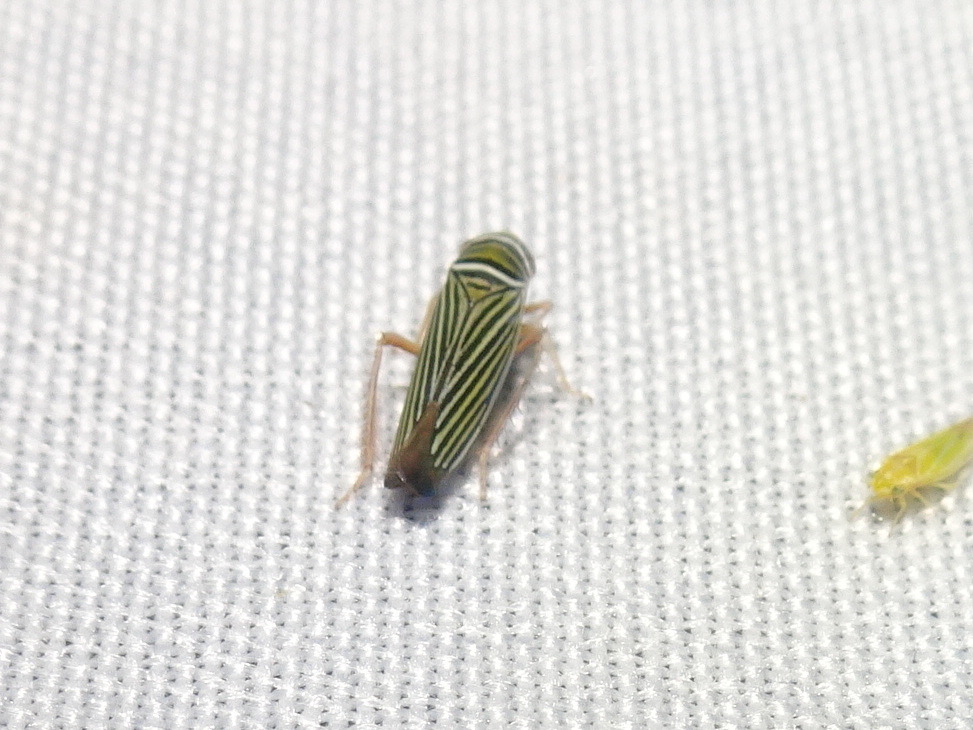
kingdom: Animalia
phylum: Arthropoda
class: Insecta
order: Hemiptera
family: Cicadellidae
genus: Tylozygus
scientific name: Tylozygus bifidus
